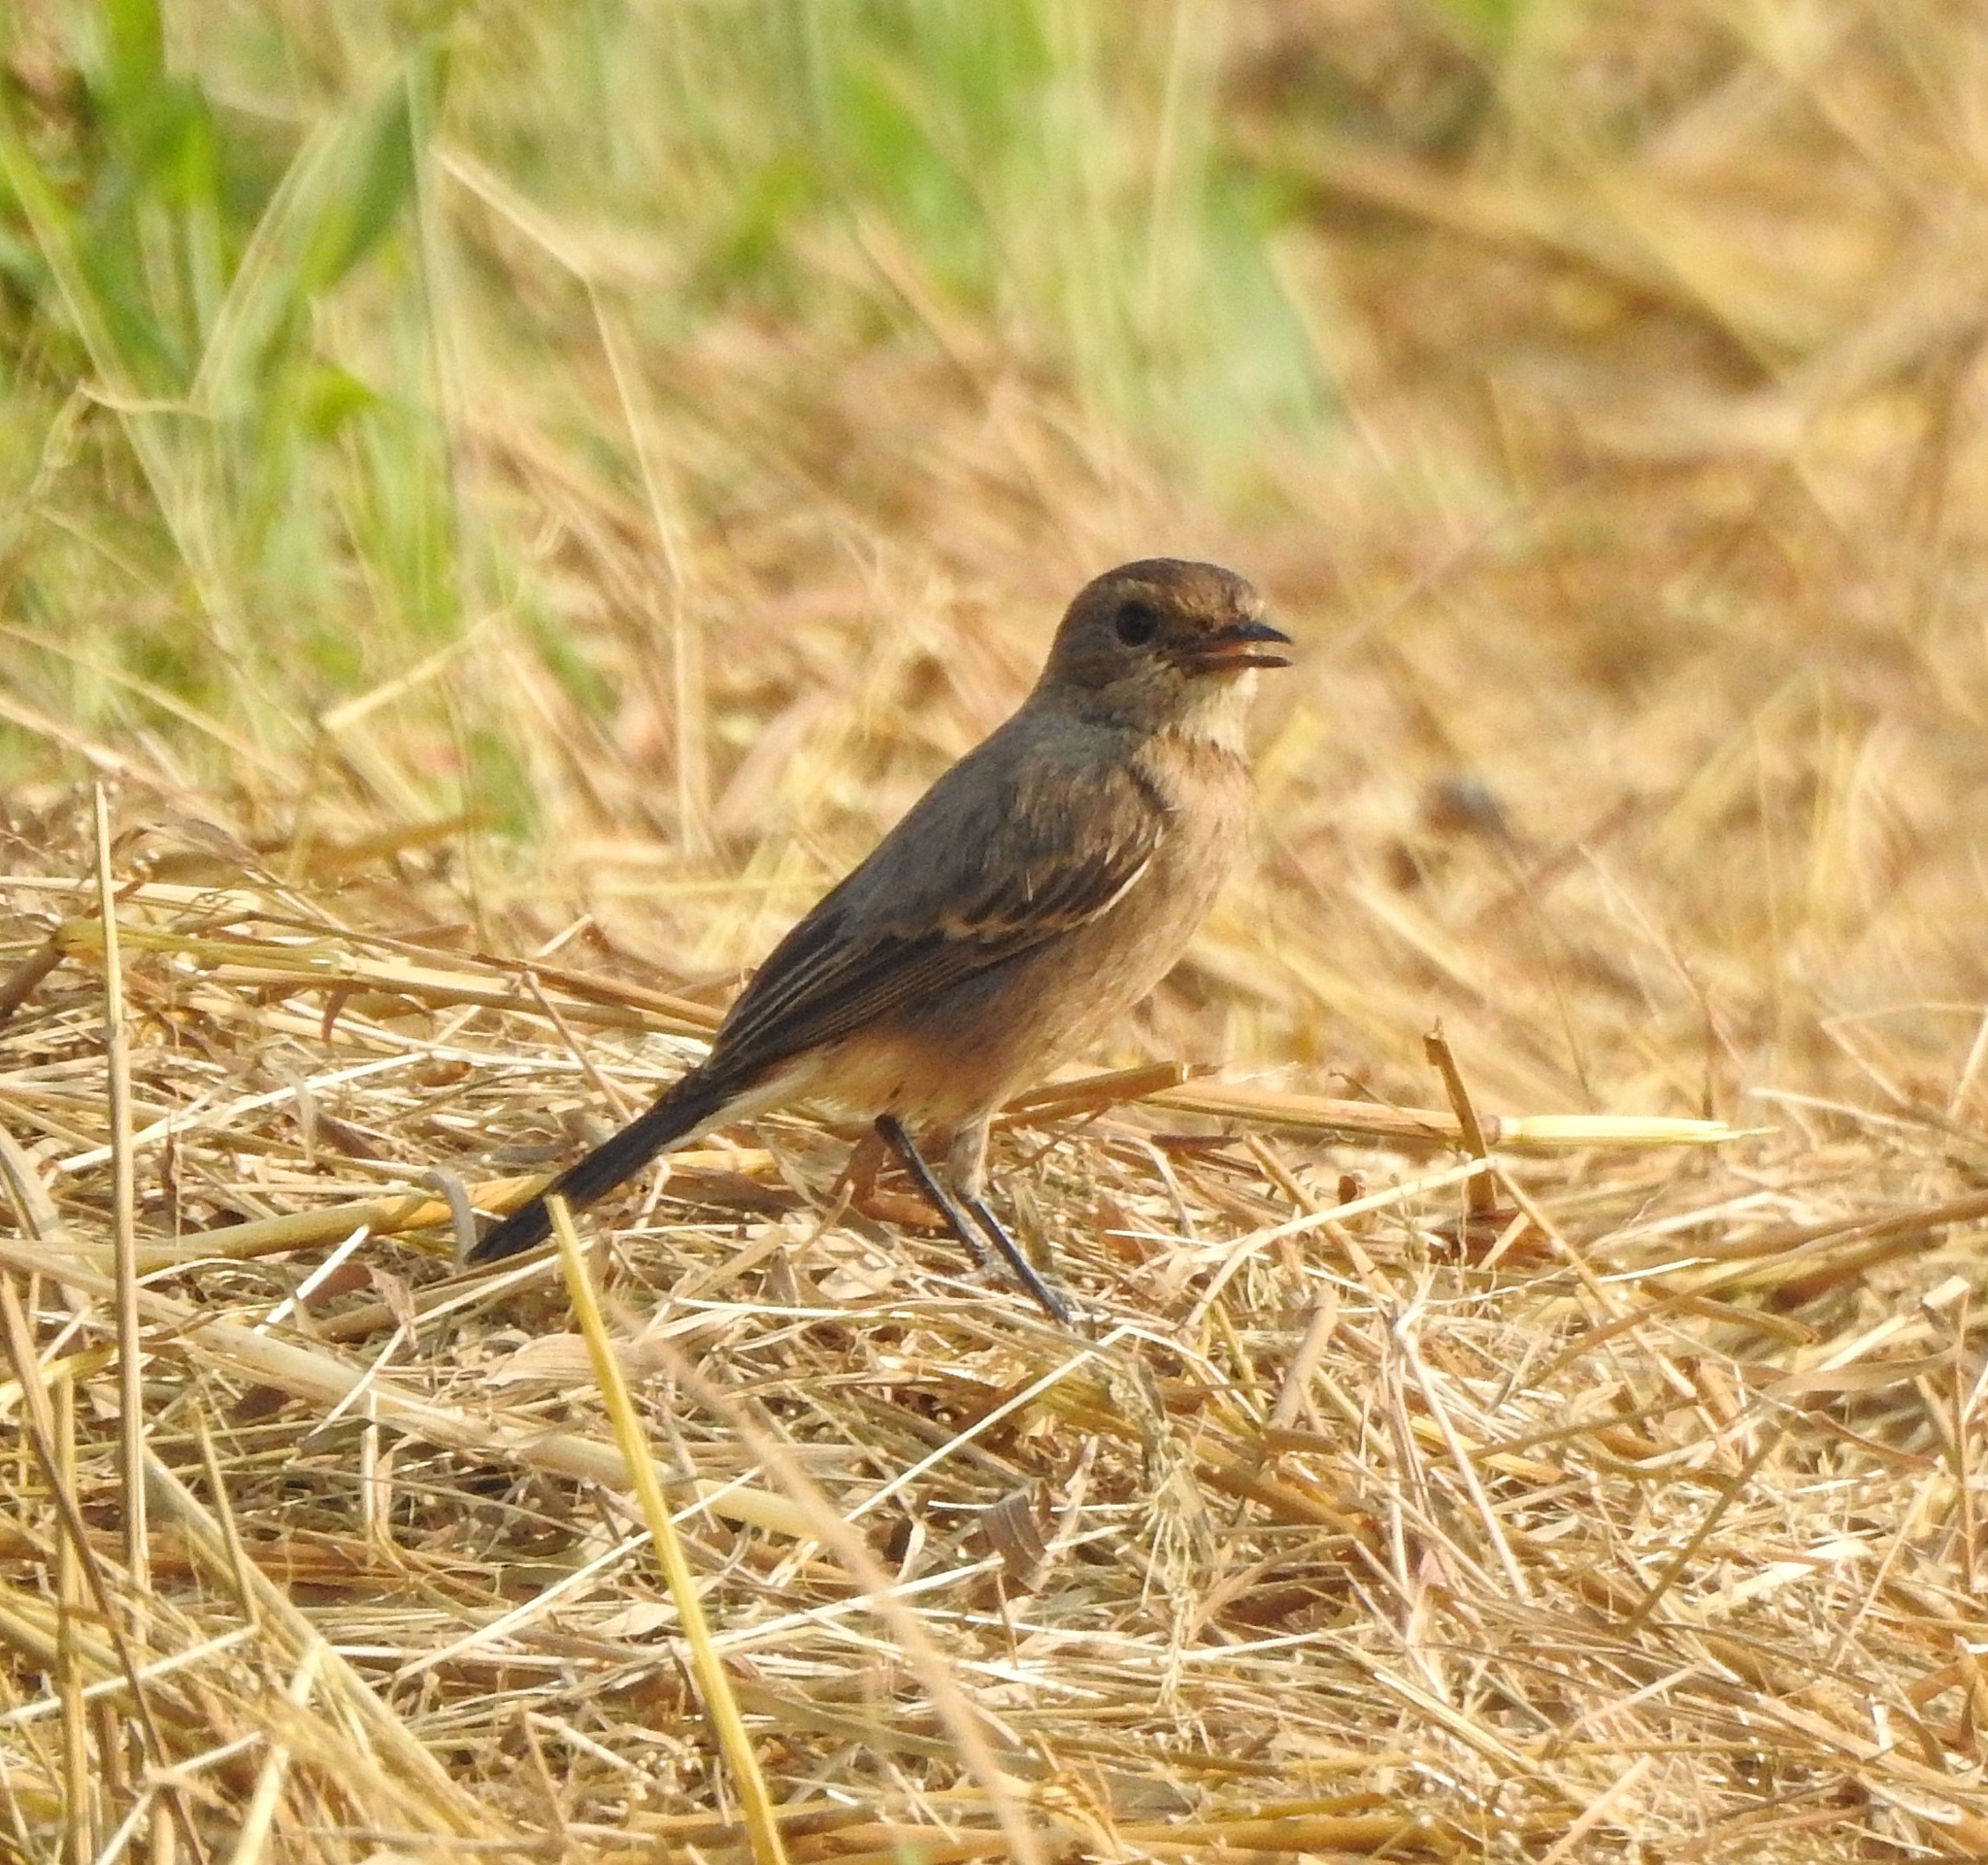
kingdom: Animalia
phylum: Chordata
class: Aves
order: Passeriformes
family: Muscicapidae
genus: Saxicola
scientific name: Saxicola caprata
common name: Pied bush chat
